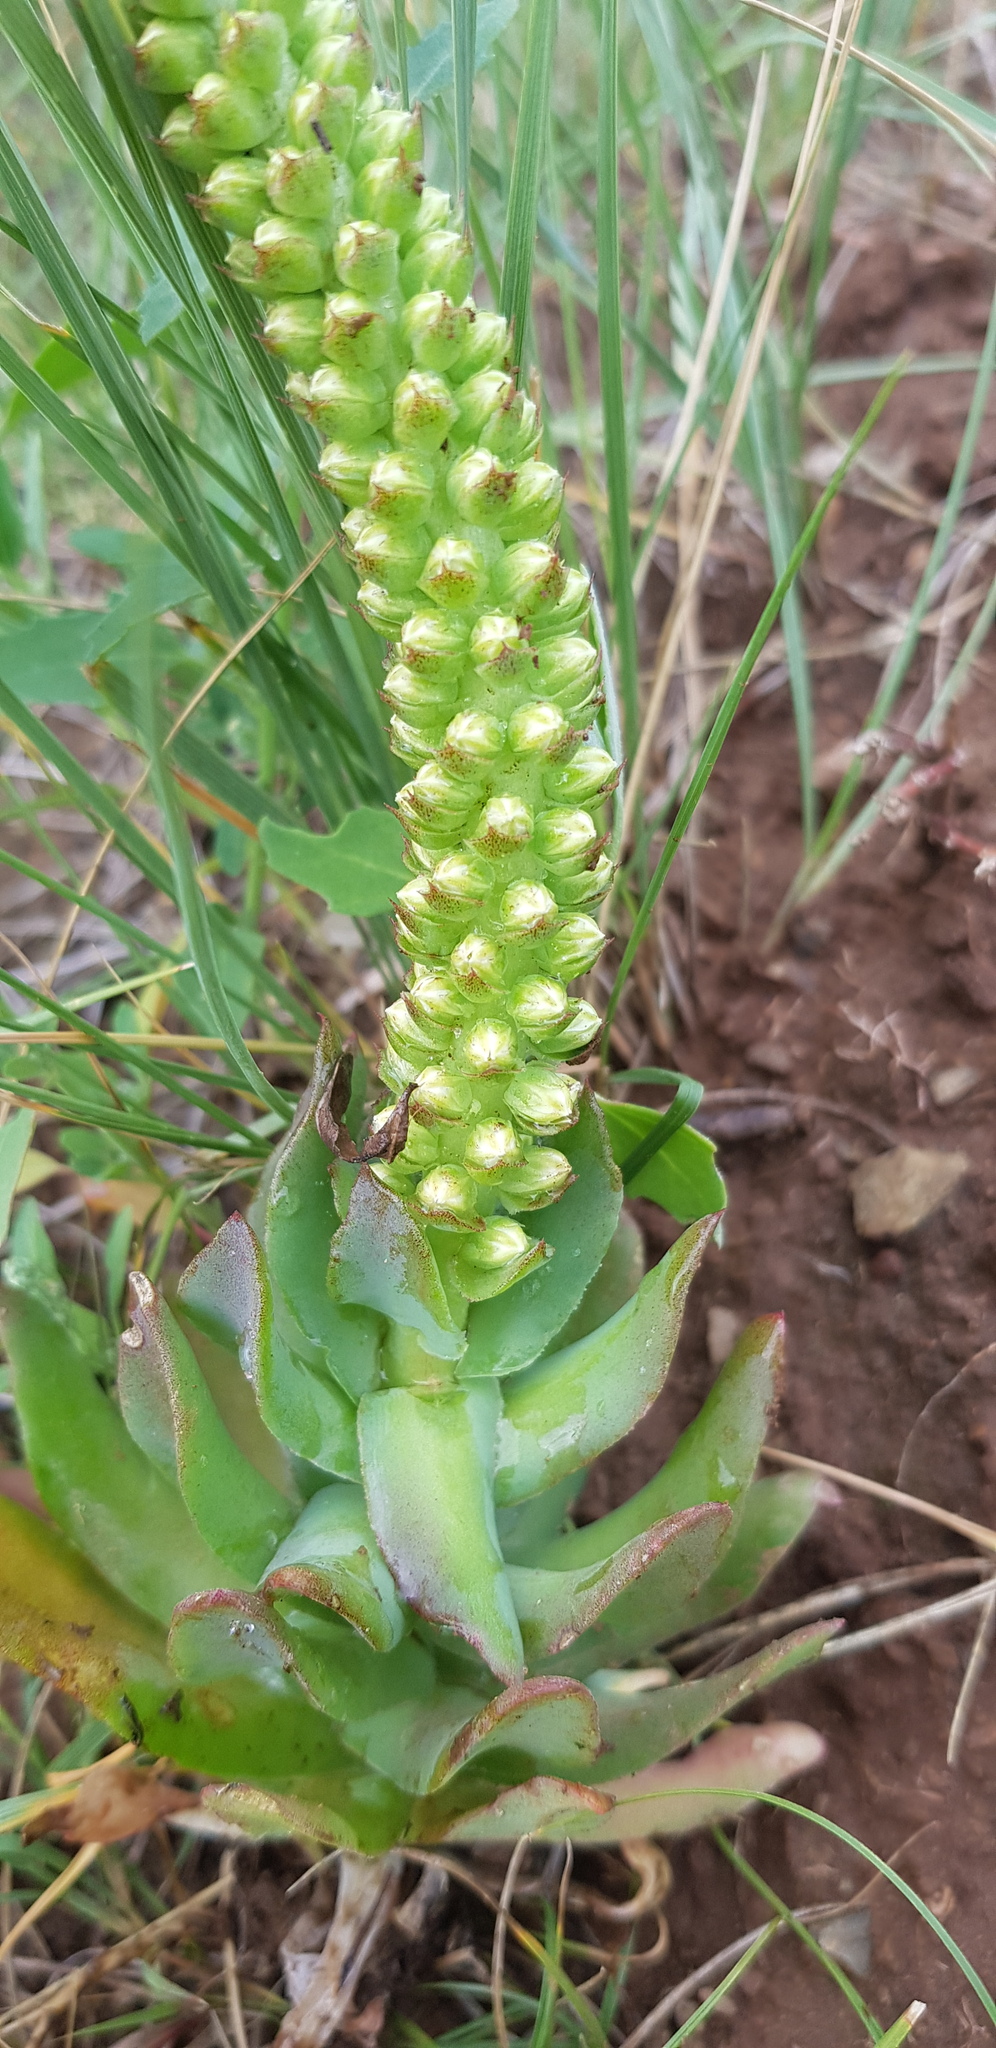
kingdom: Plantae
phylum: Tracheophyta
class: Magnoliopsida
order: Saxifragales
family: Crassulaceae
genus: Orostachys
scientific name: Orostachys malacophylla
